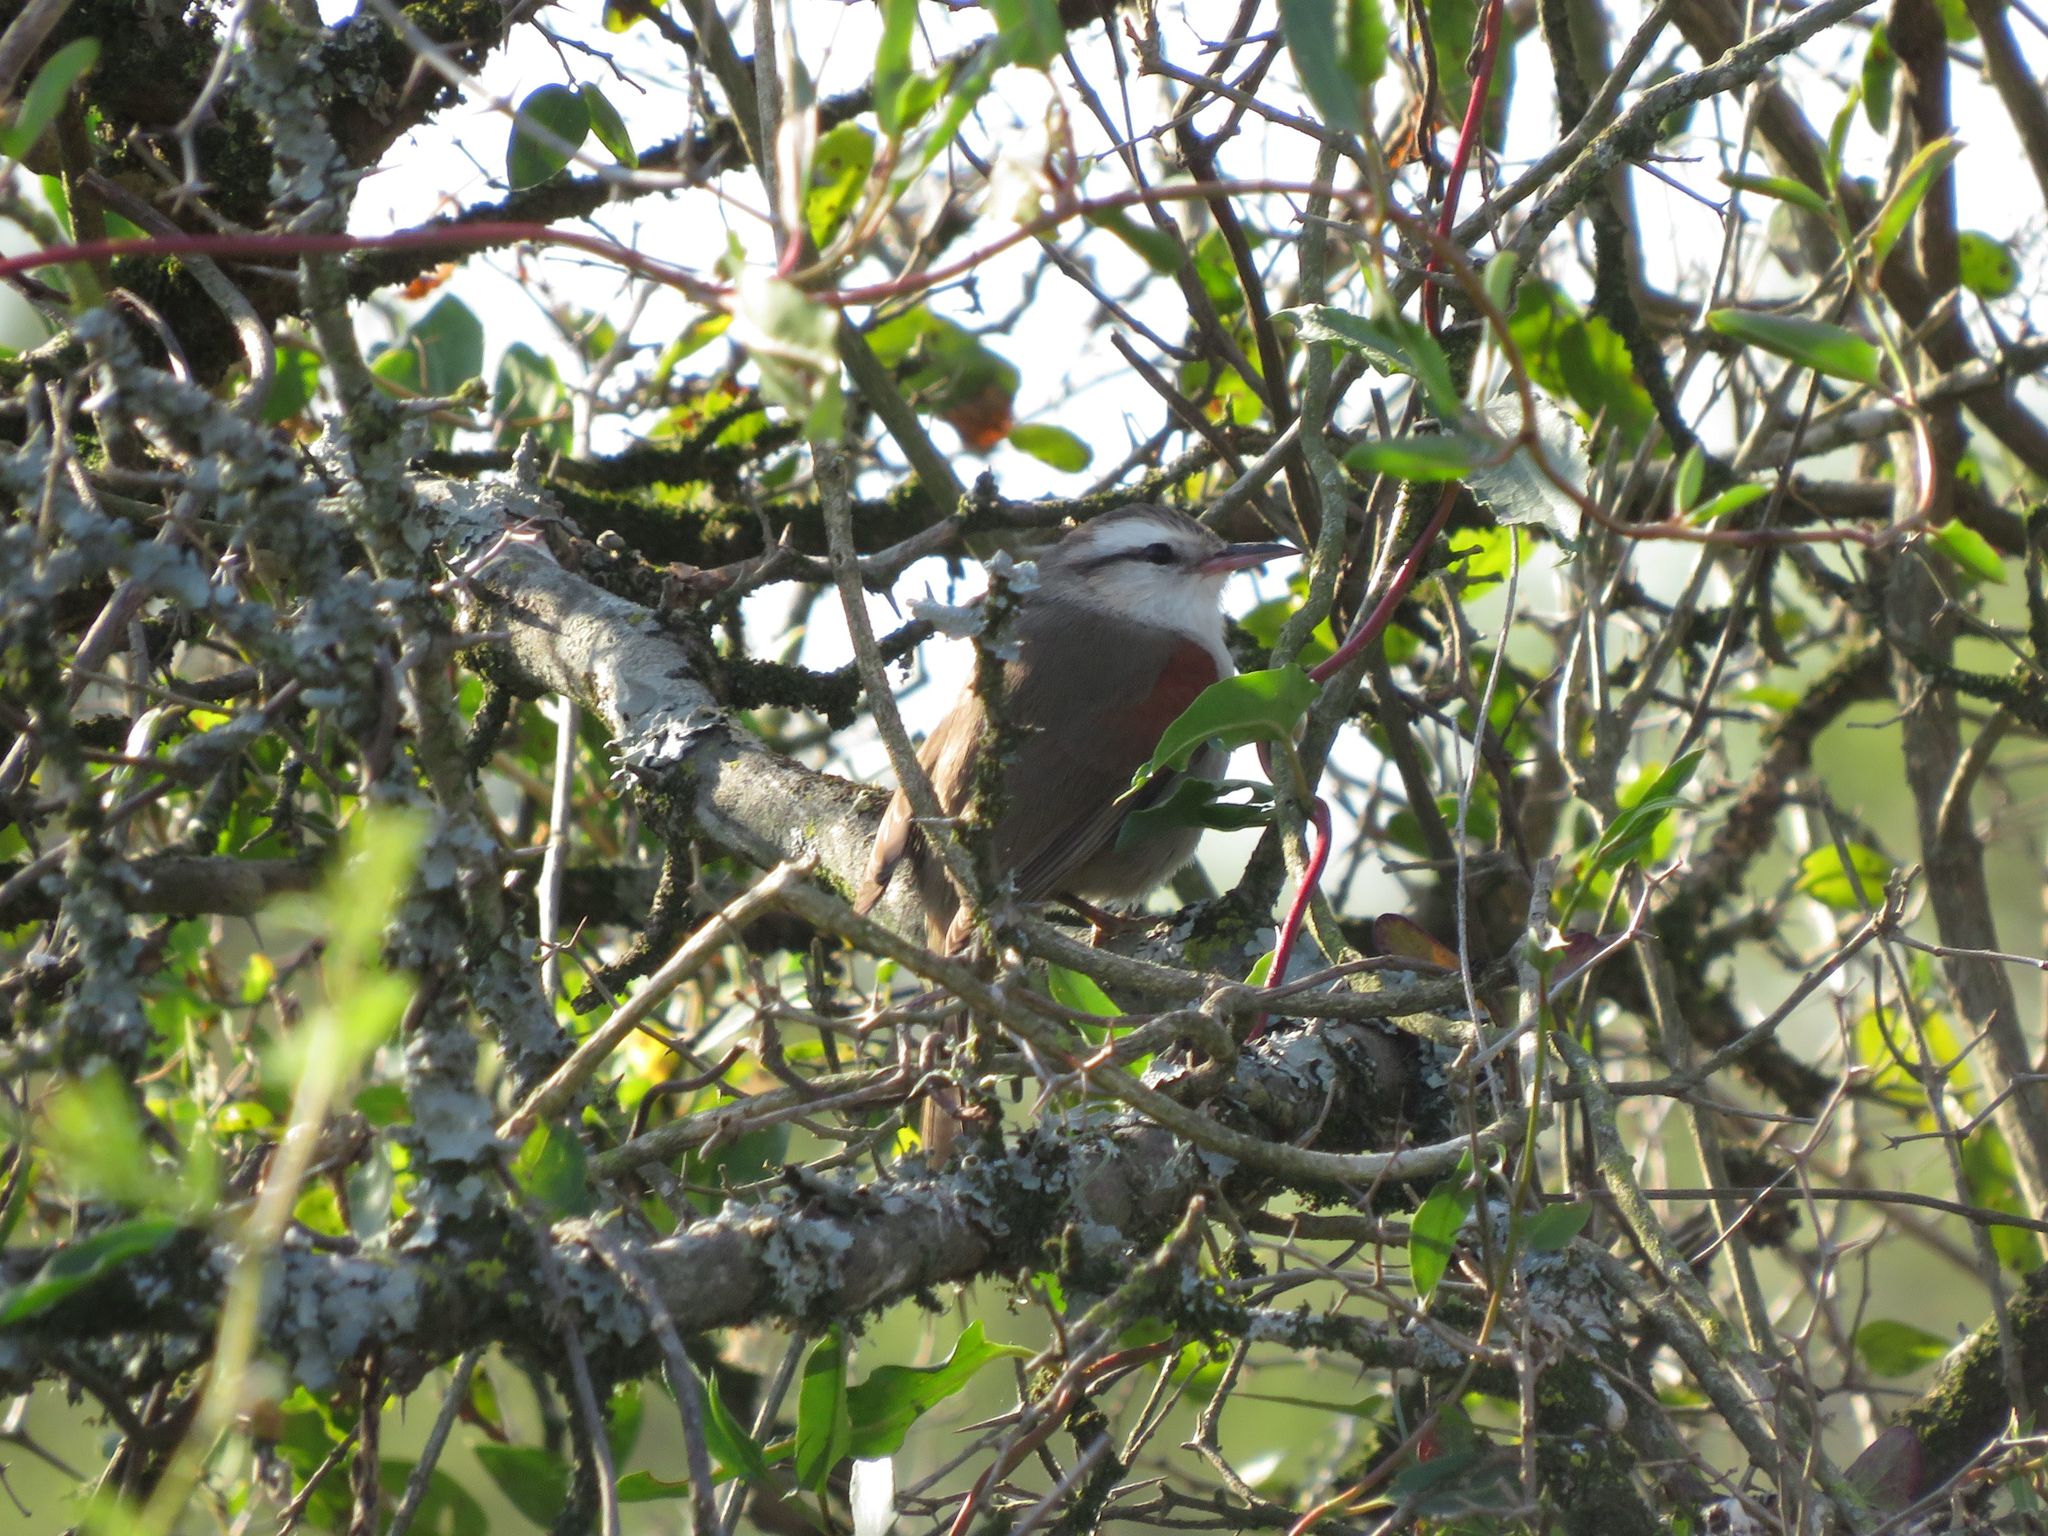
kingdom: Animalia
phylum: Chordata
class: Aves
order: Passeriformes
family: Furnariidae
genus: Cranioleuca
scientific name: Cranioleuca pyrrhophia
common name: Stripe-crowned spinetail
